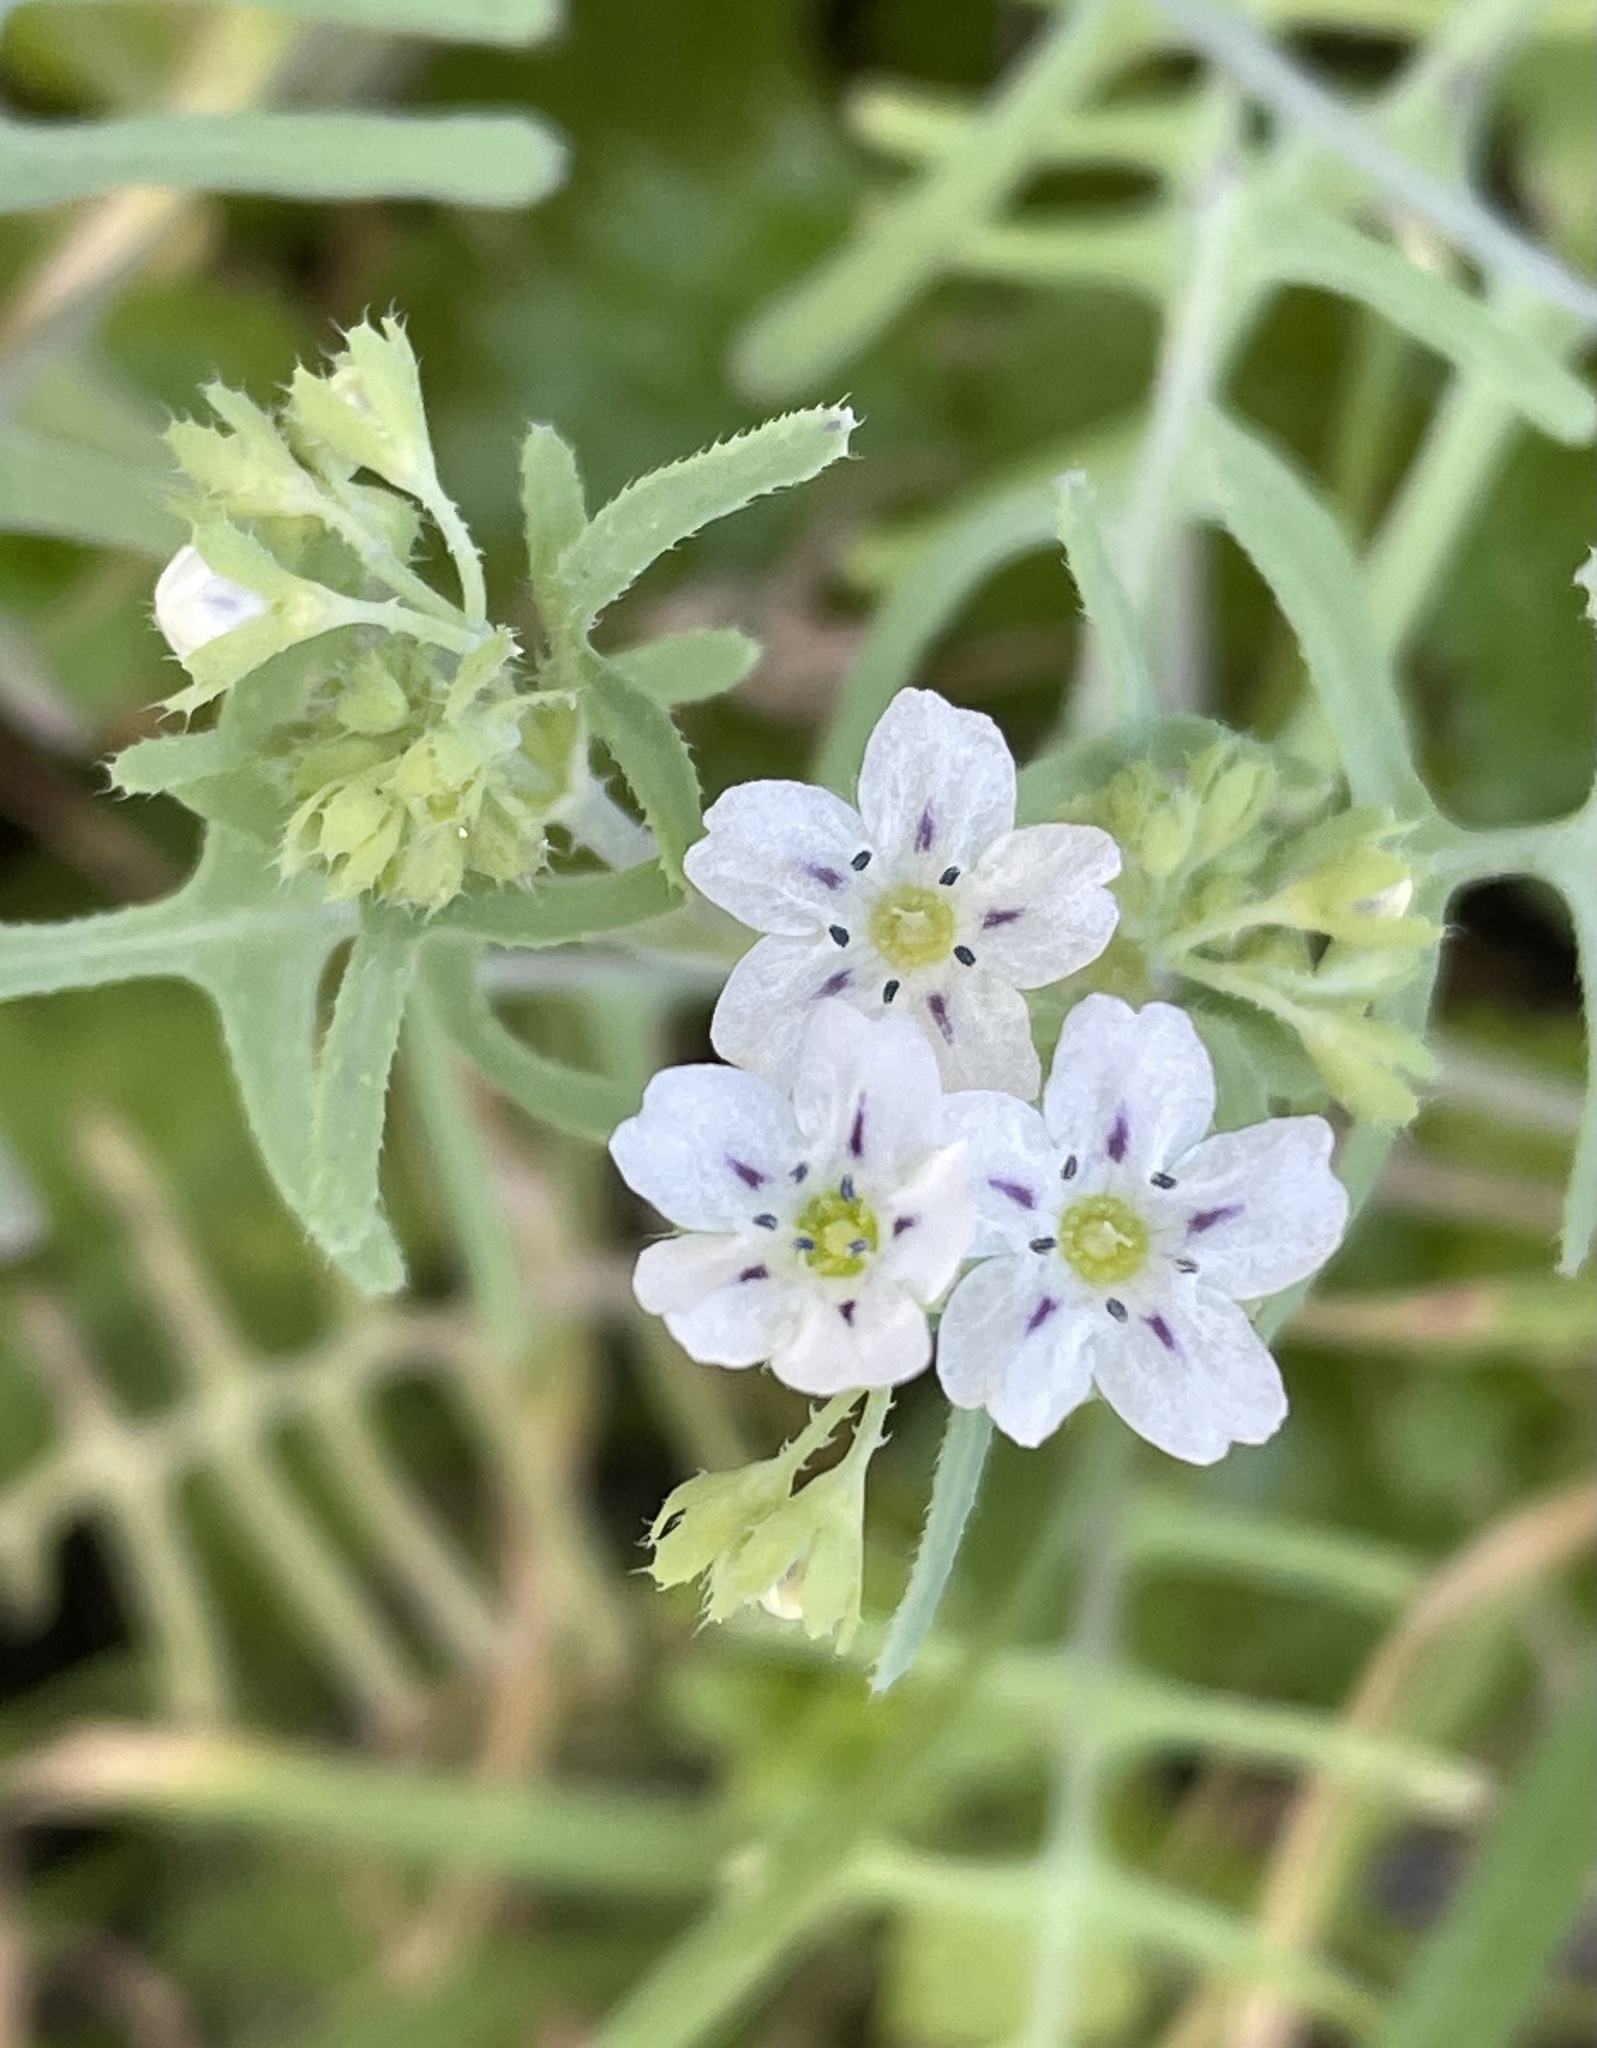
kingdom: Plantae
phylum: Tracheophyta
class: Magnoliopsida
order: Boraginales
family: Hydrophyllaceae
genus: Pholistoma
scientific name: Pholistoma membranaceum
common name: White fiesta-flower
